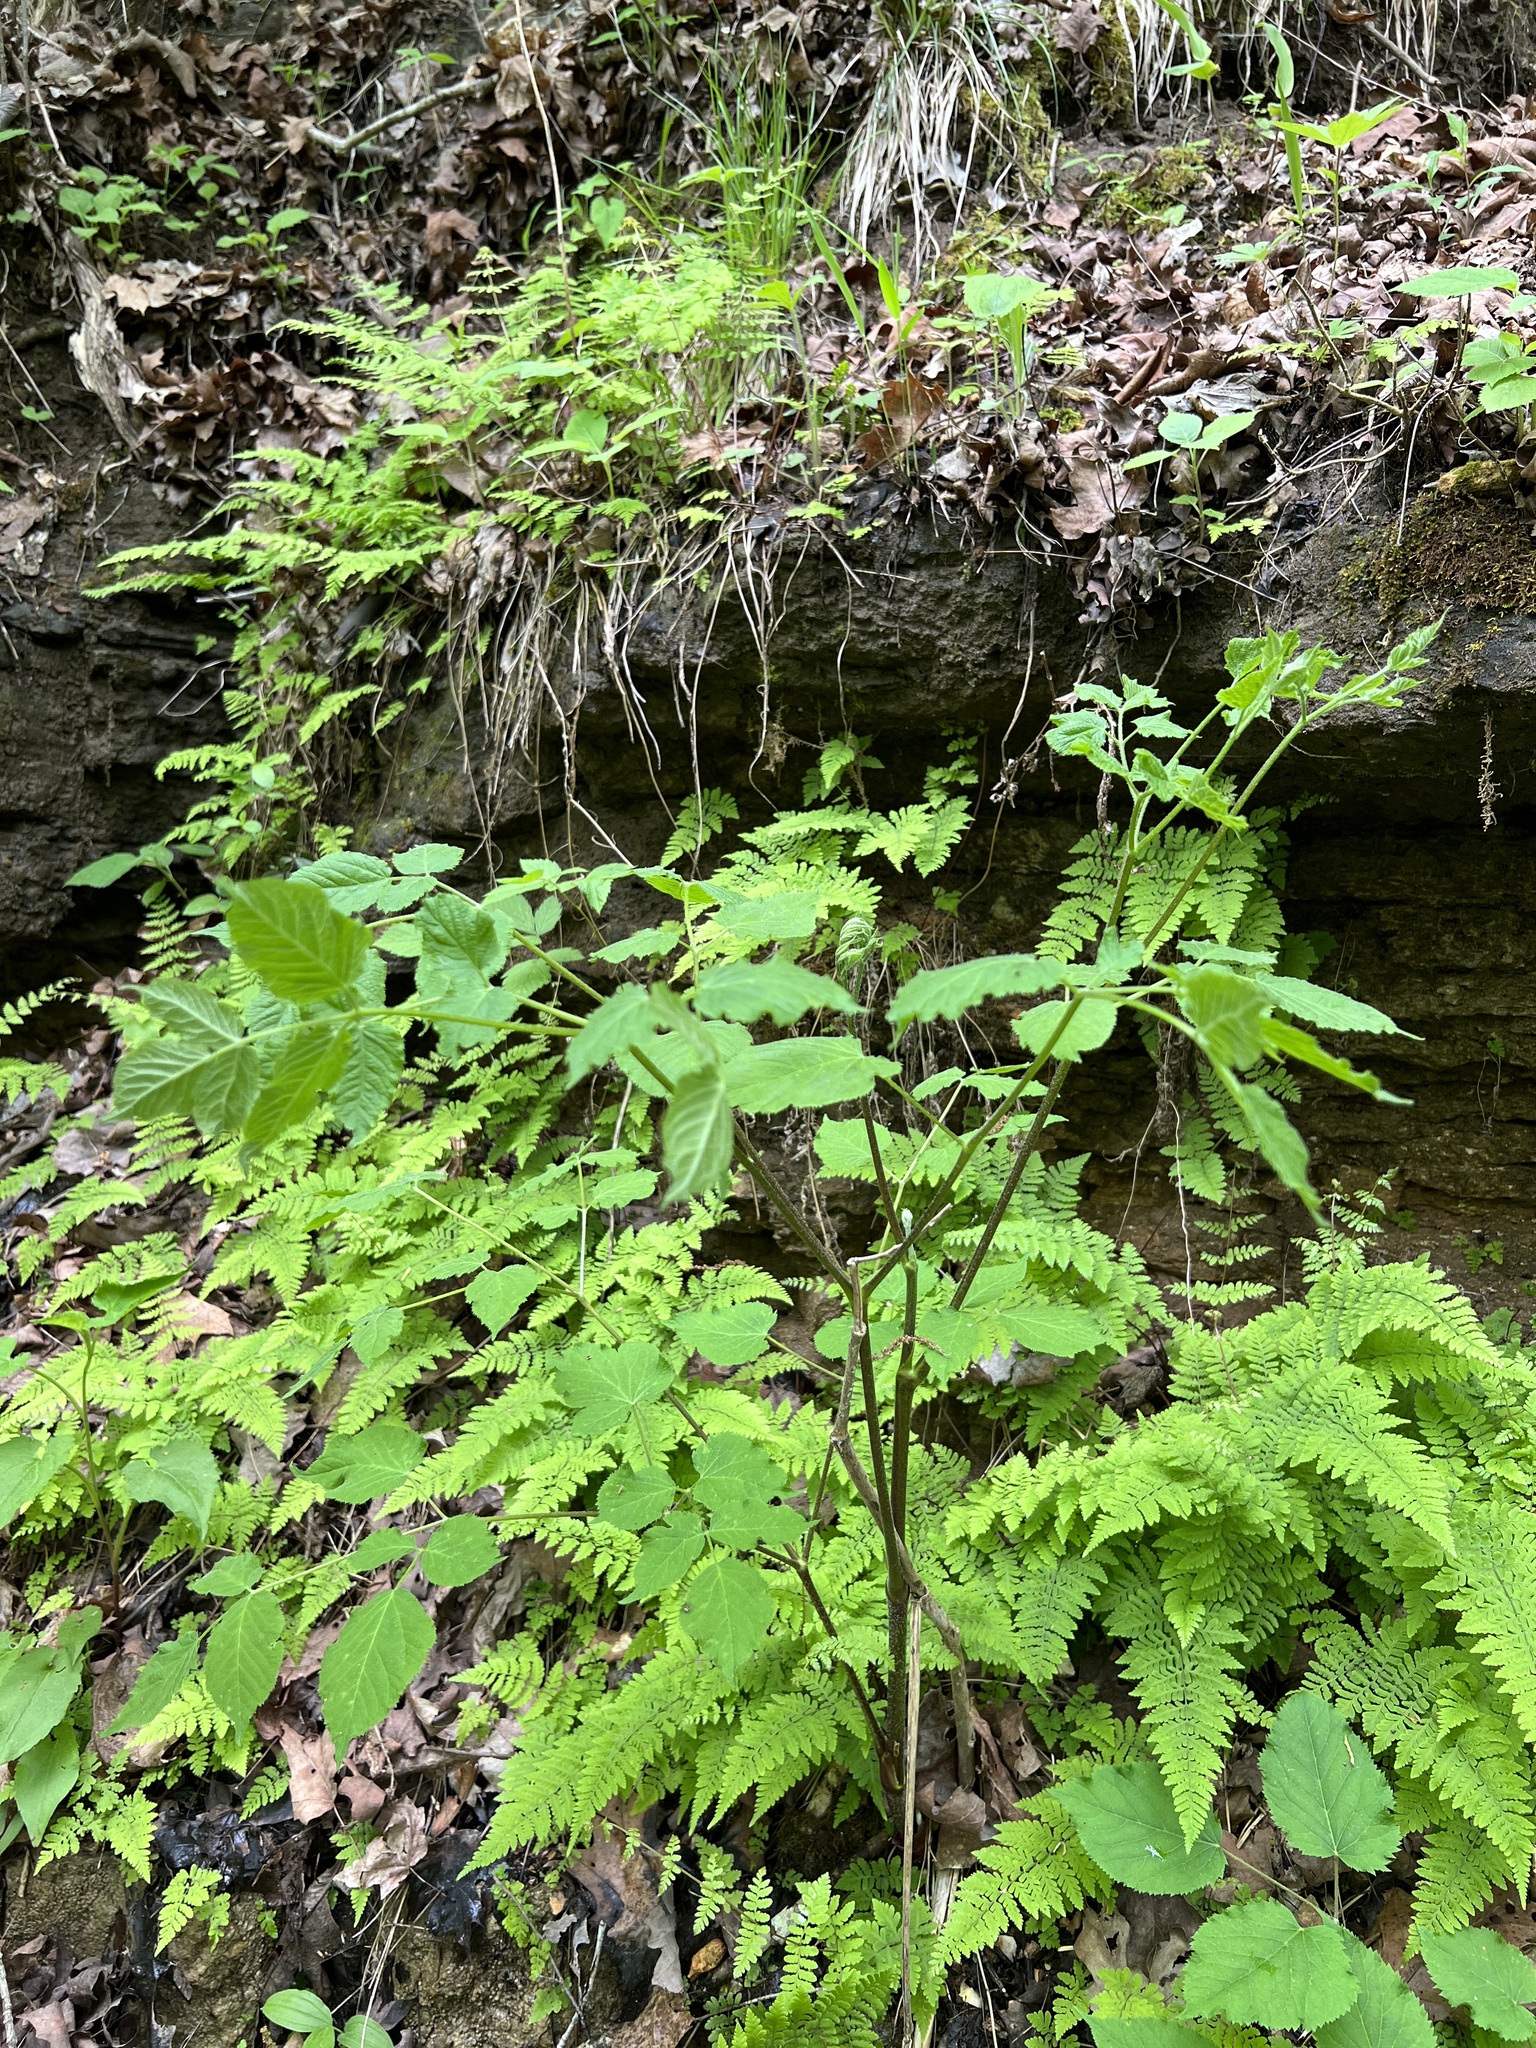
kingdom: Plantae
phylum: Tracheophyta
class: Magnoliopsida
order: Apiales
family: Araliaceae
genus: Aralia
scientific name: Aralia racemosa
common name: American-spikenard
